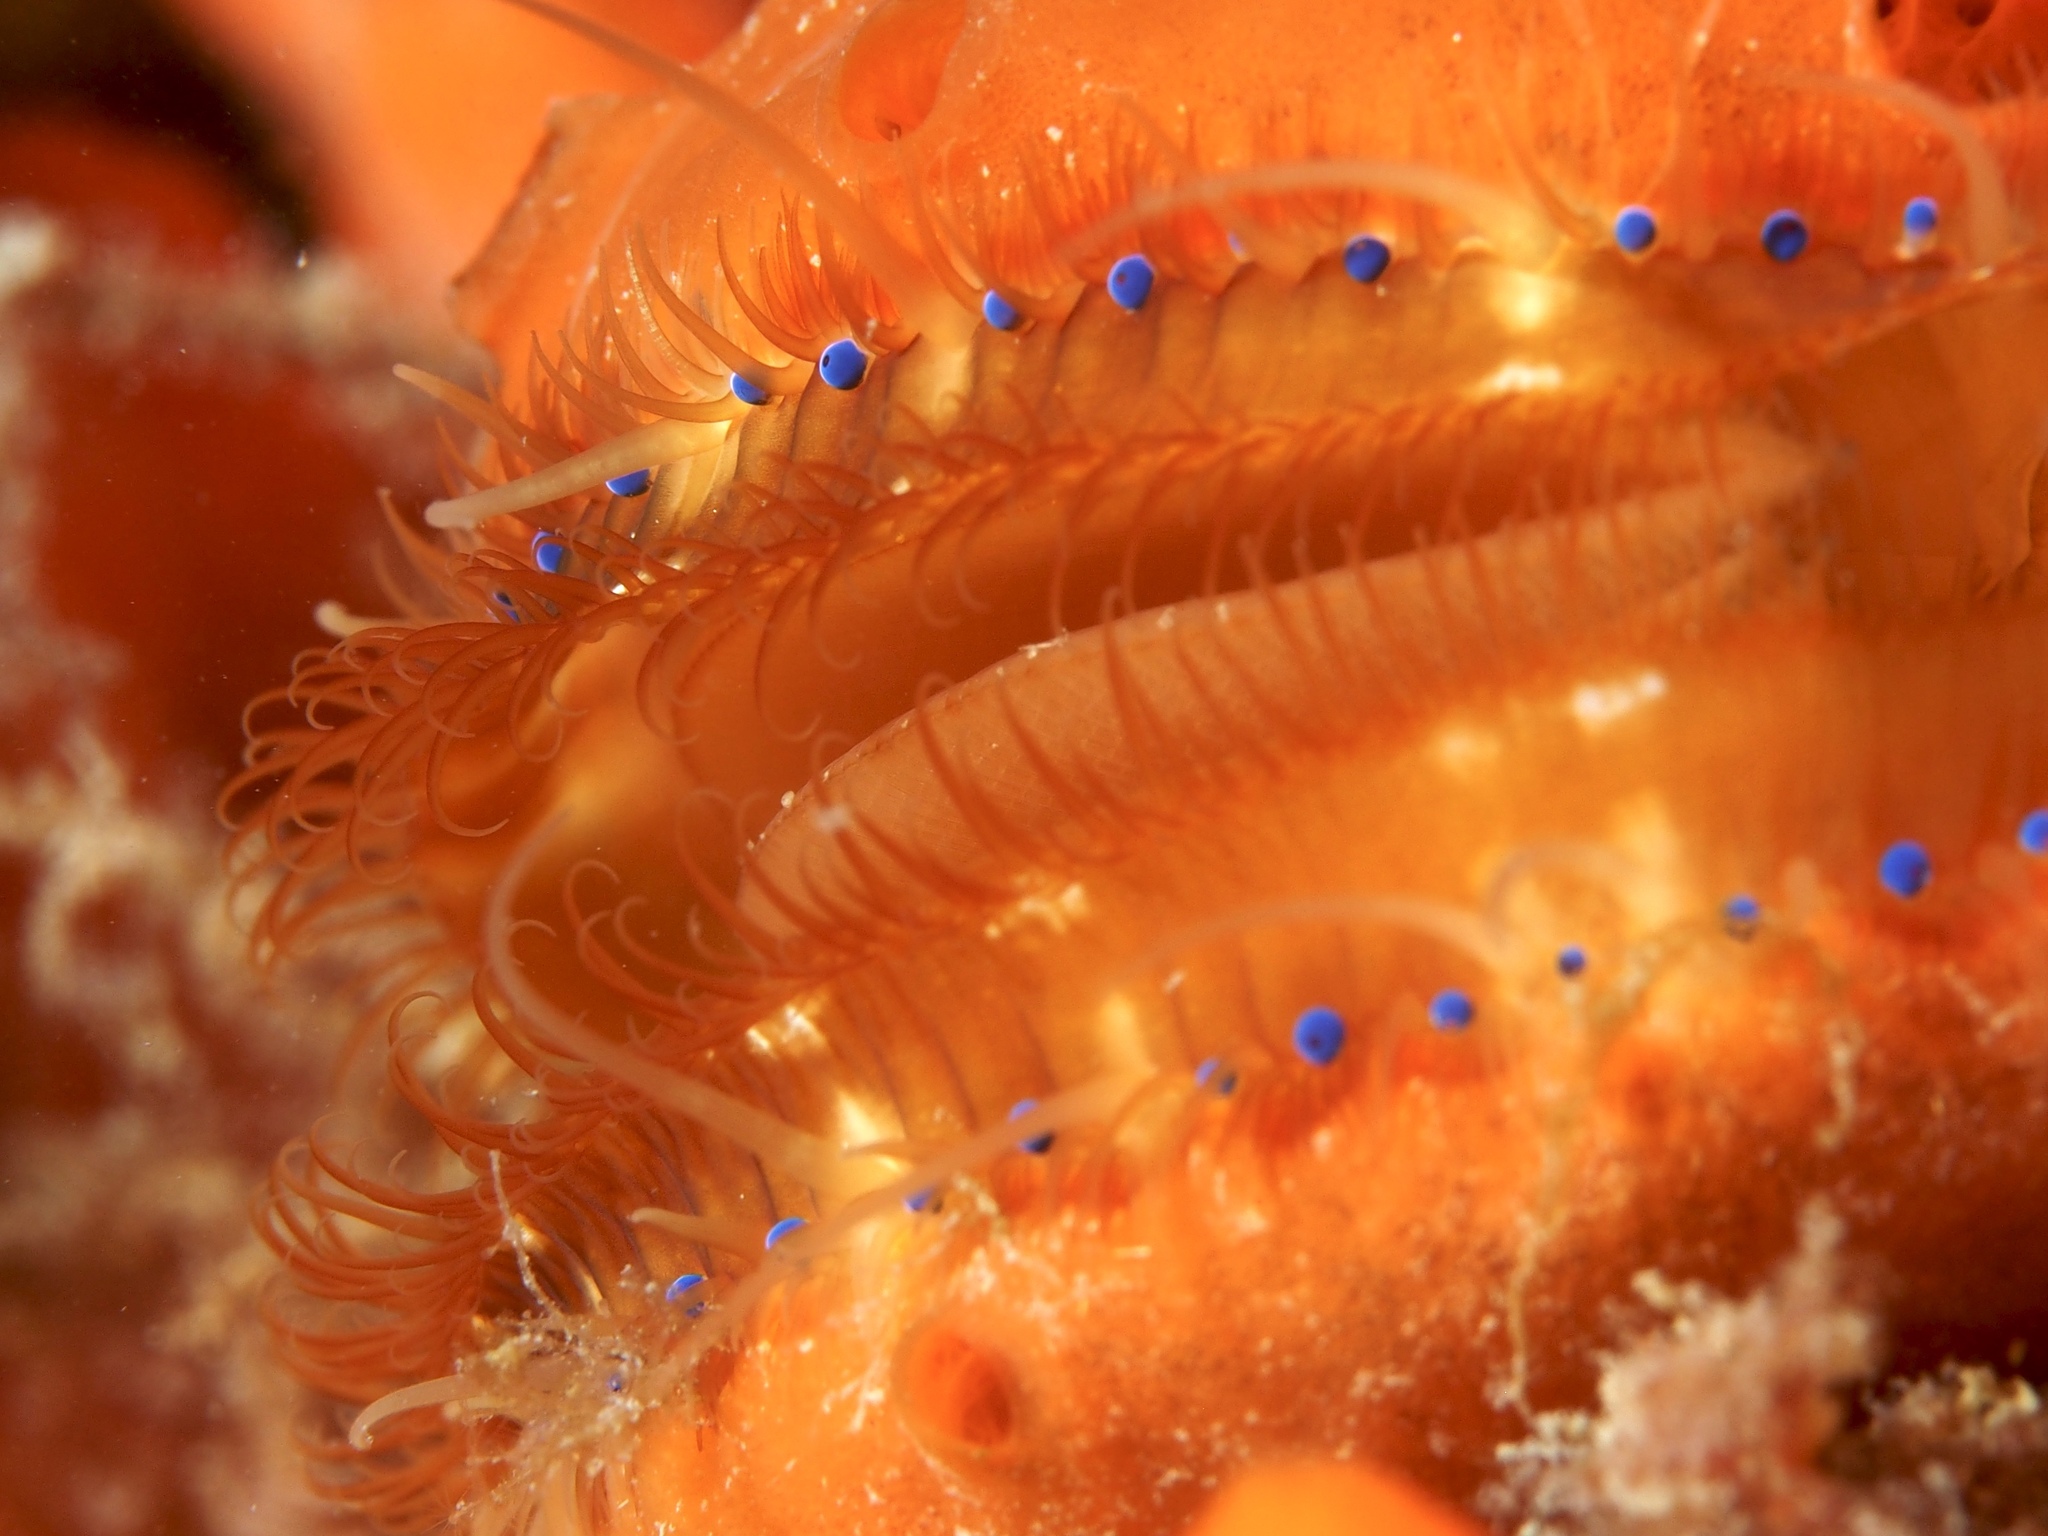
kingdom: Animalia
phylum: Mollusca
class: Bivalvia
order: Pectinida
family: Pectinidae
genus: Mimachlamys
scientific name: Mimachlamys asperrima
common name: Austral scallop
